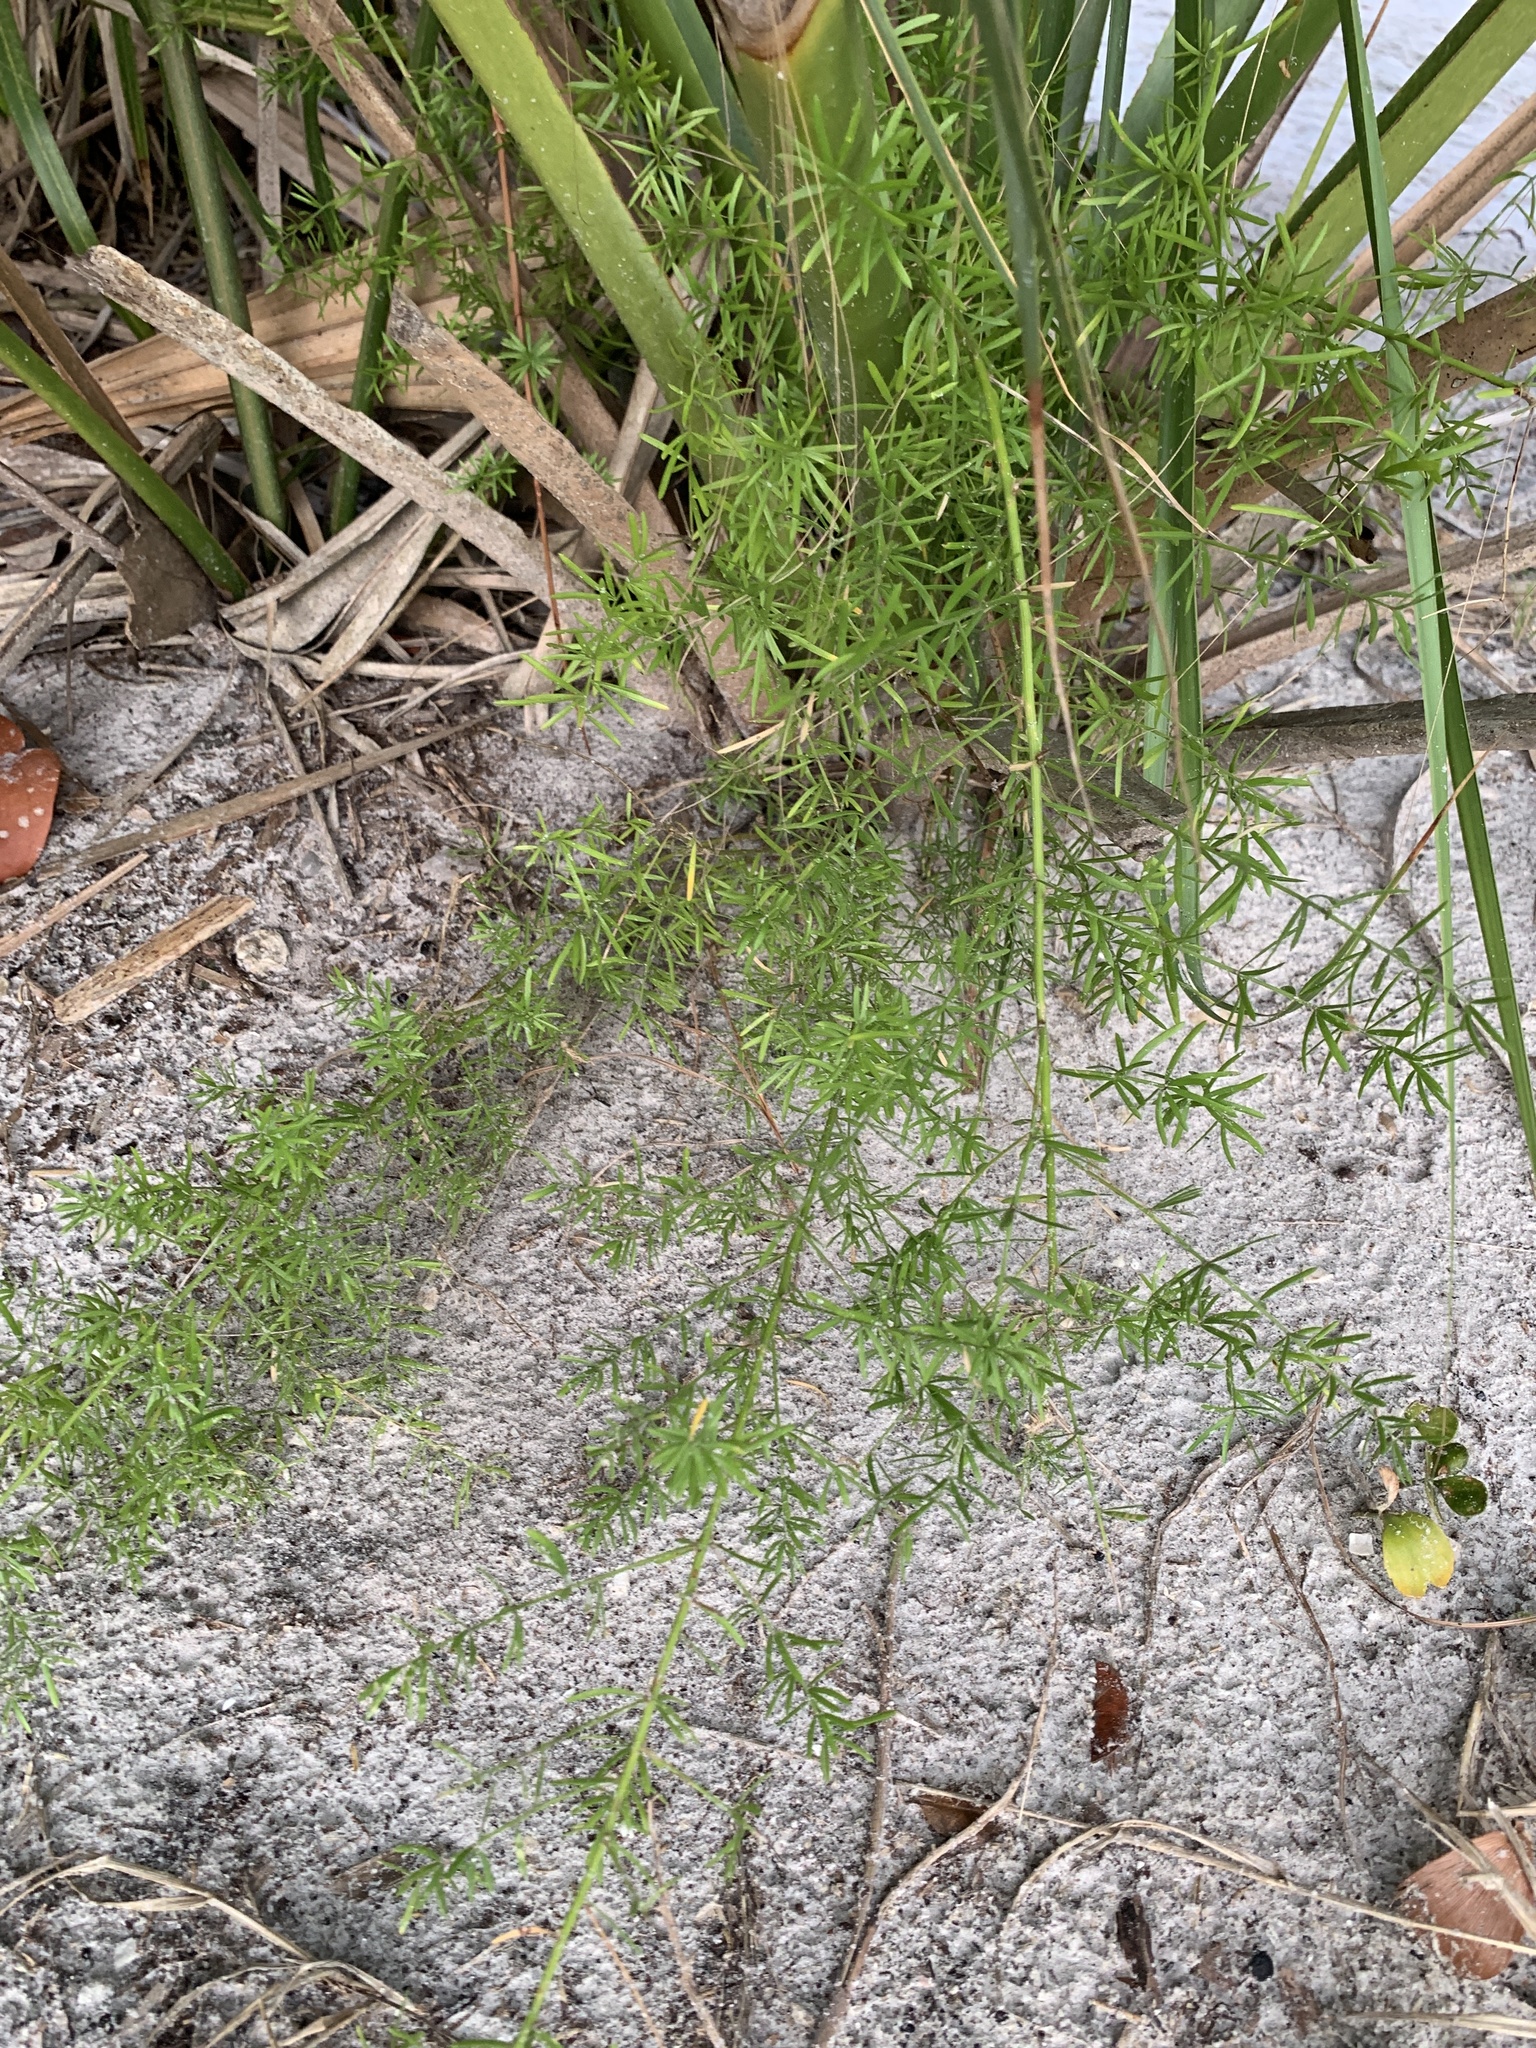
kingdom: Plantae
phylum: Tracheophyta
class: Liliopsida
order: Asparagales
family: Asparagaceae
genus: Asparagus
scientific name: Asparagus aethiopicus
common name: Sprenger's asparagus fern
